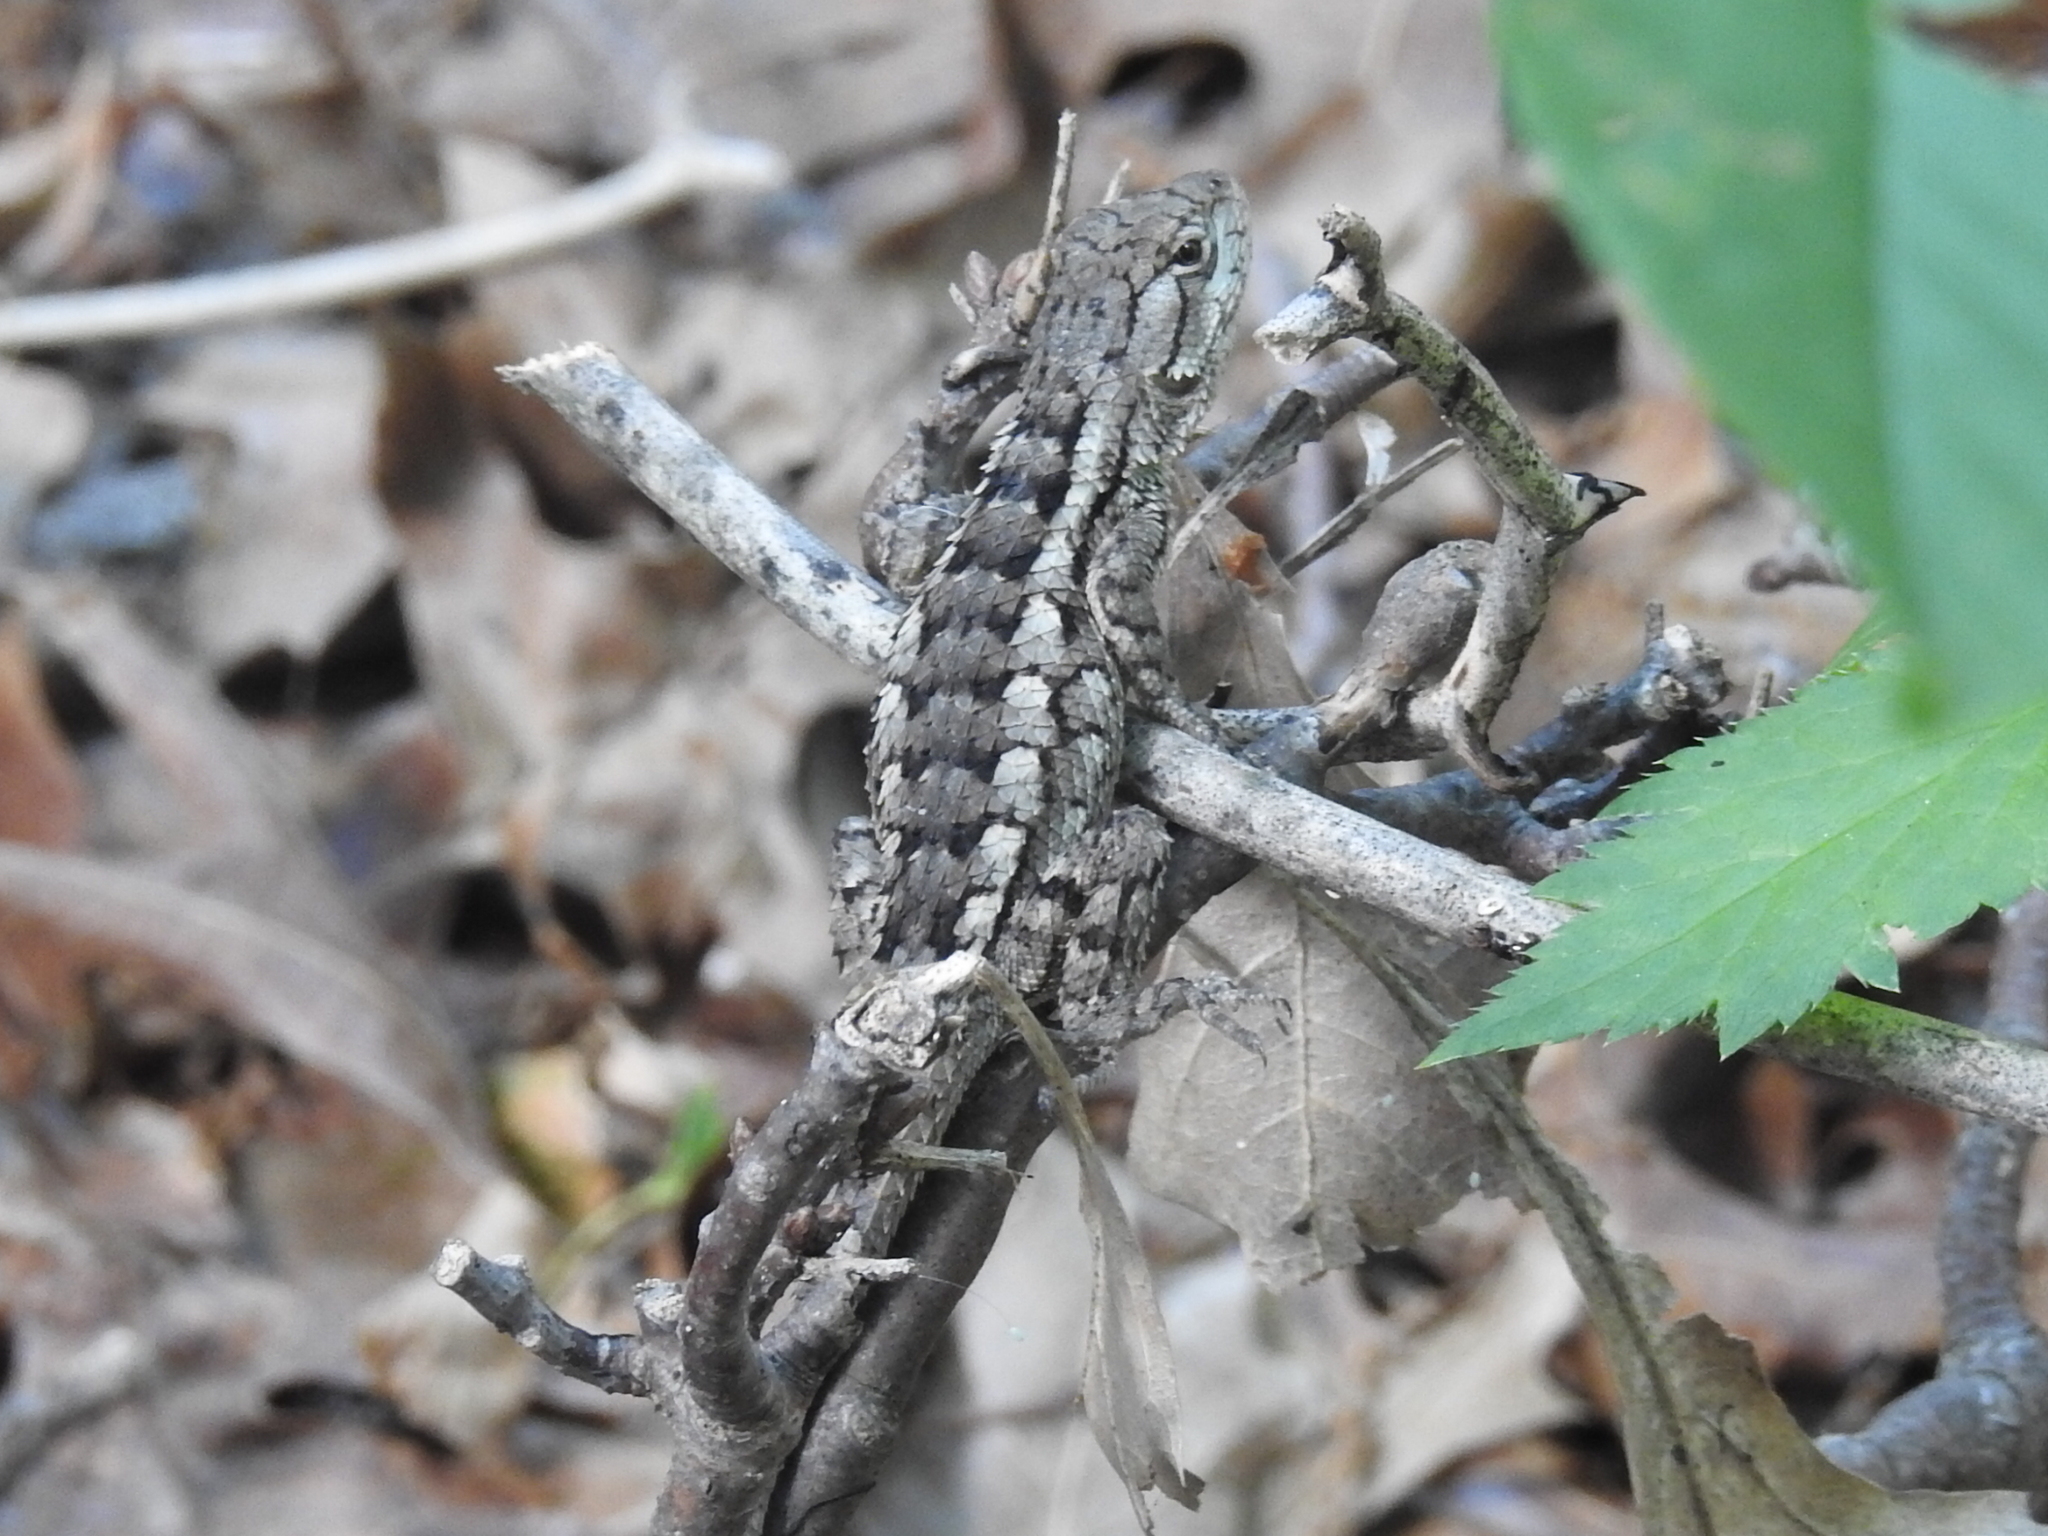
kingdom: Animalia
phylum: Chordata
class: Squamata
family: Phrynosomatidae
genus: Sceloporus
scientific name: Sceloporus olivaceus
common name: Texas spiny lizard
